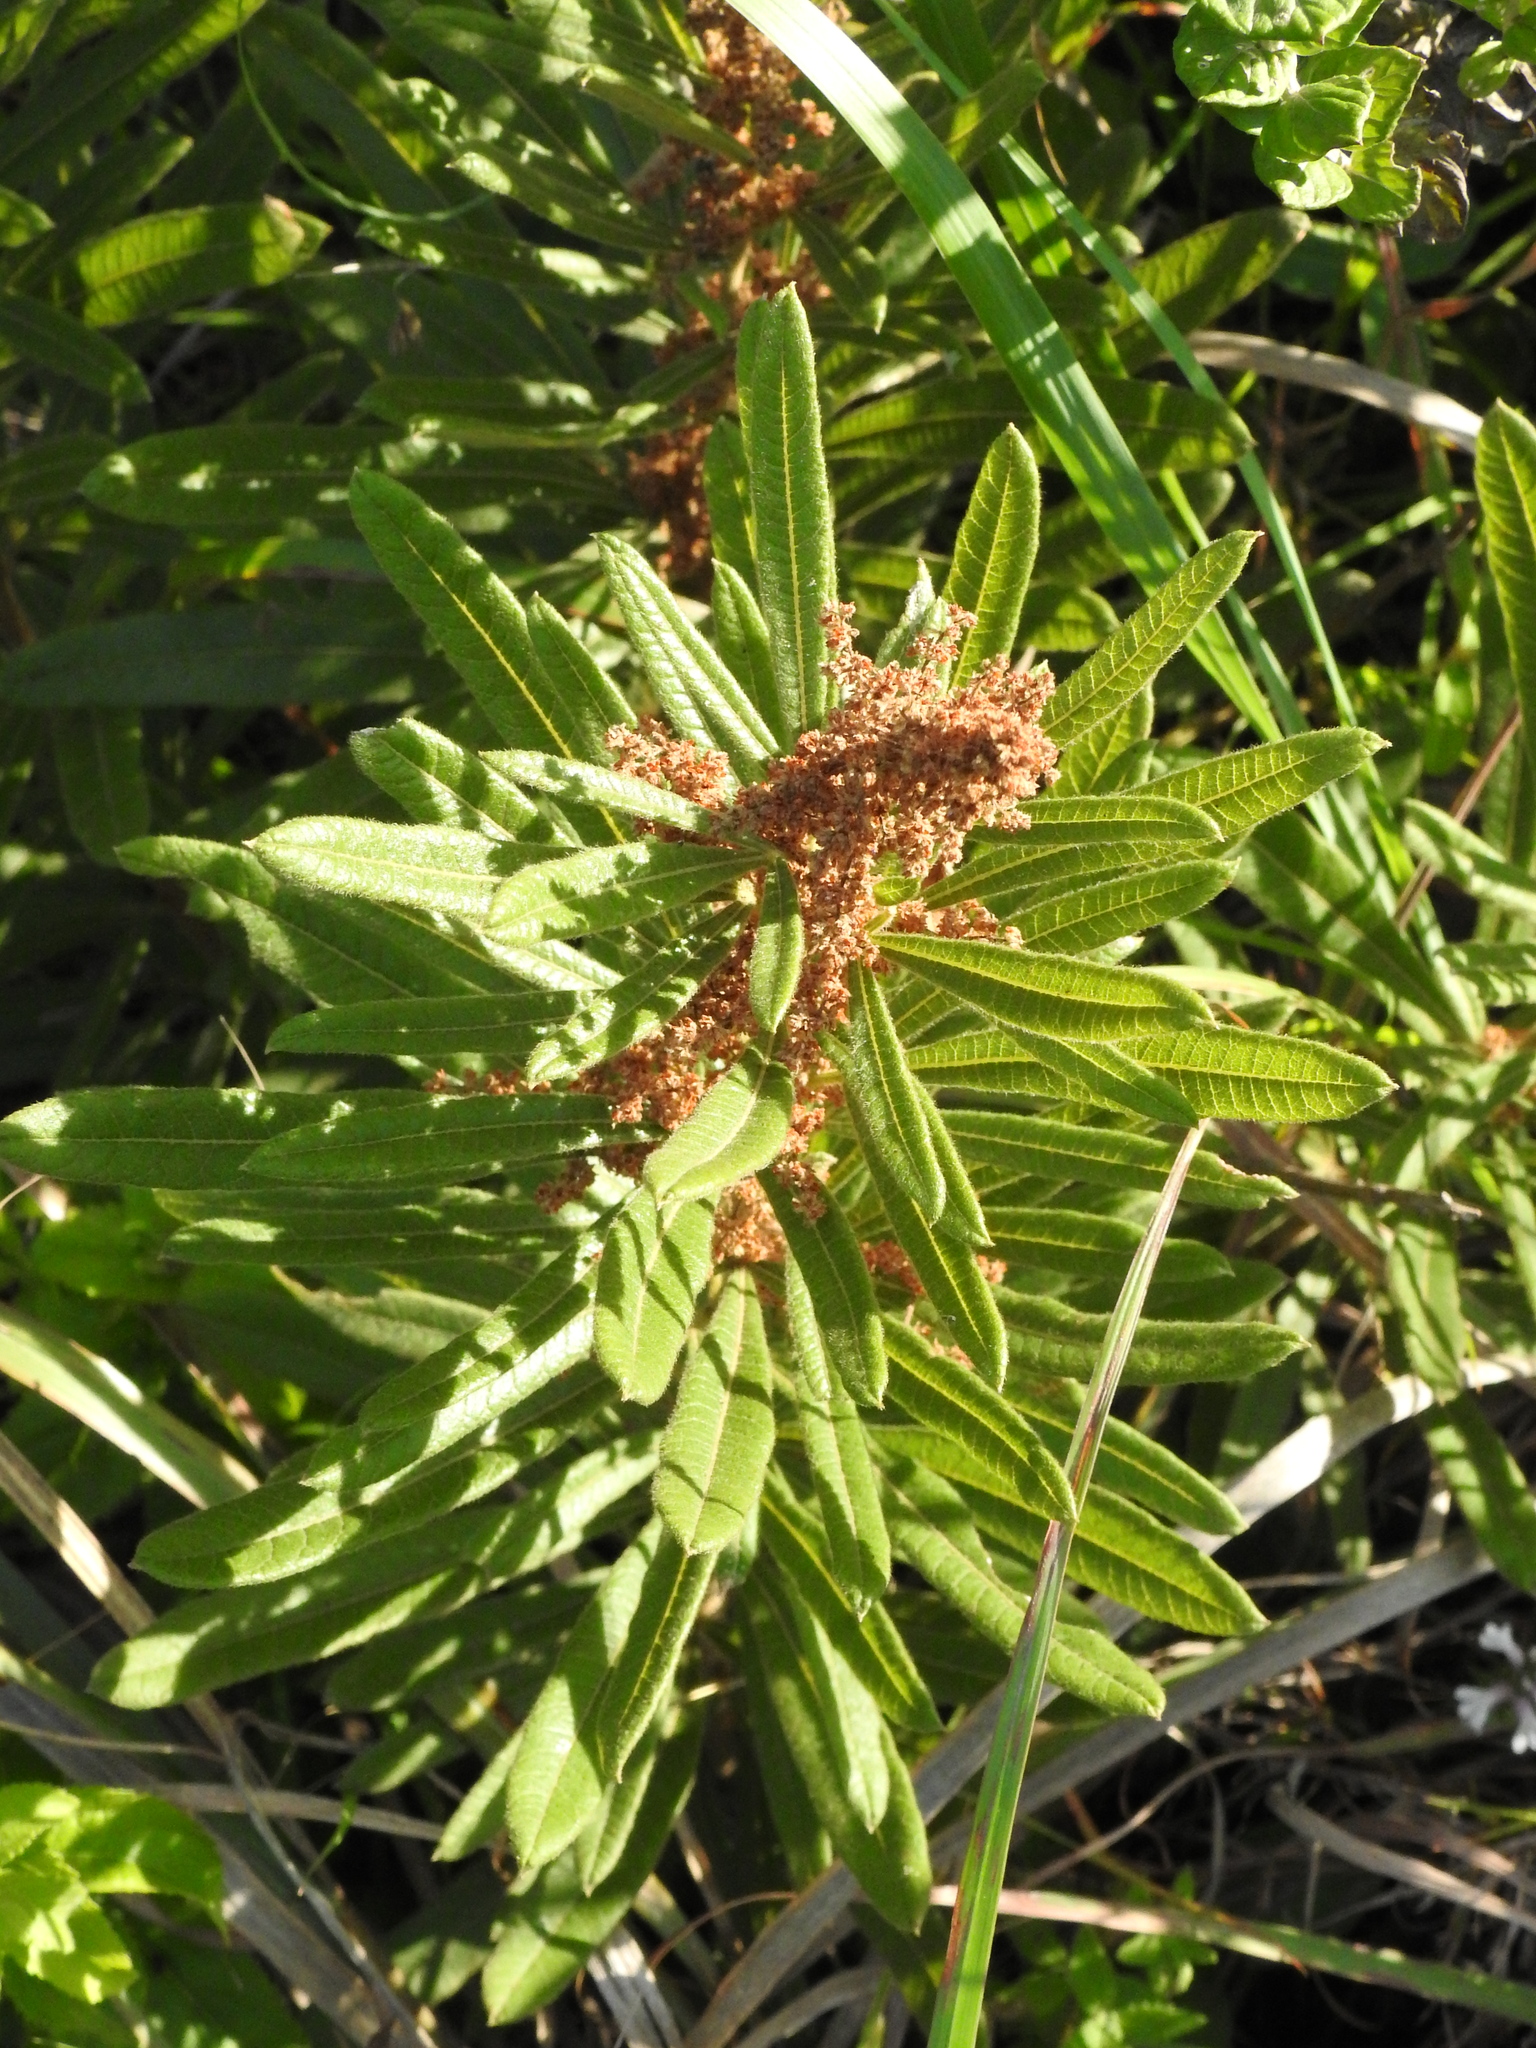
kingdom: Plantae
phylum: Tracheophyta
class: Magnoliopsida
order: Sapindales
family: Anacardiaceae
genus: Searsia
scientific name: Searsia discolor
